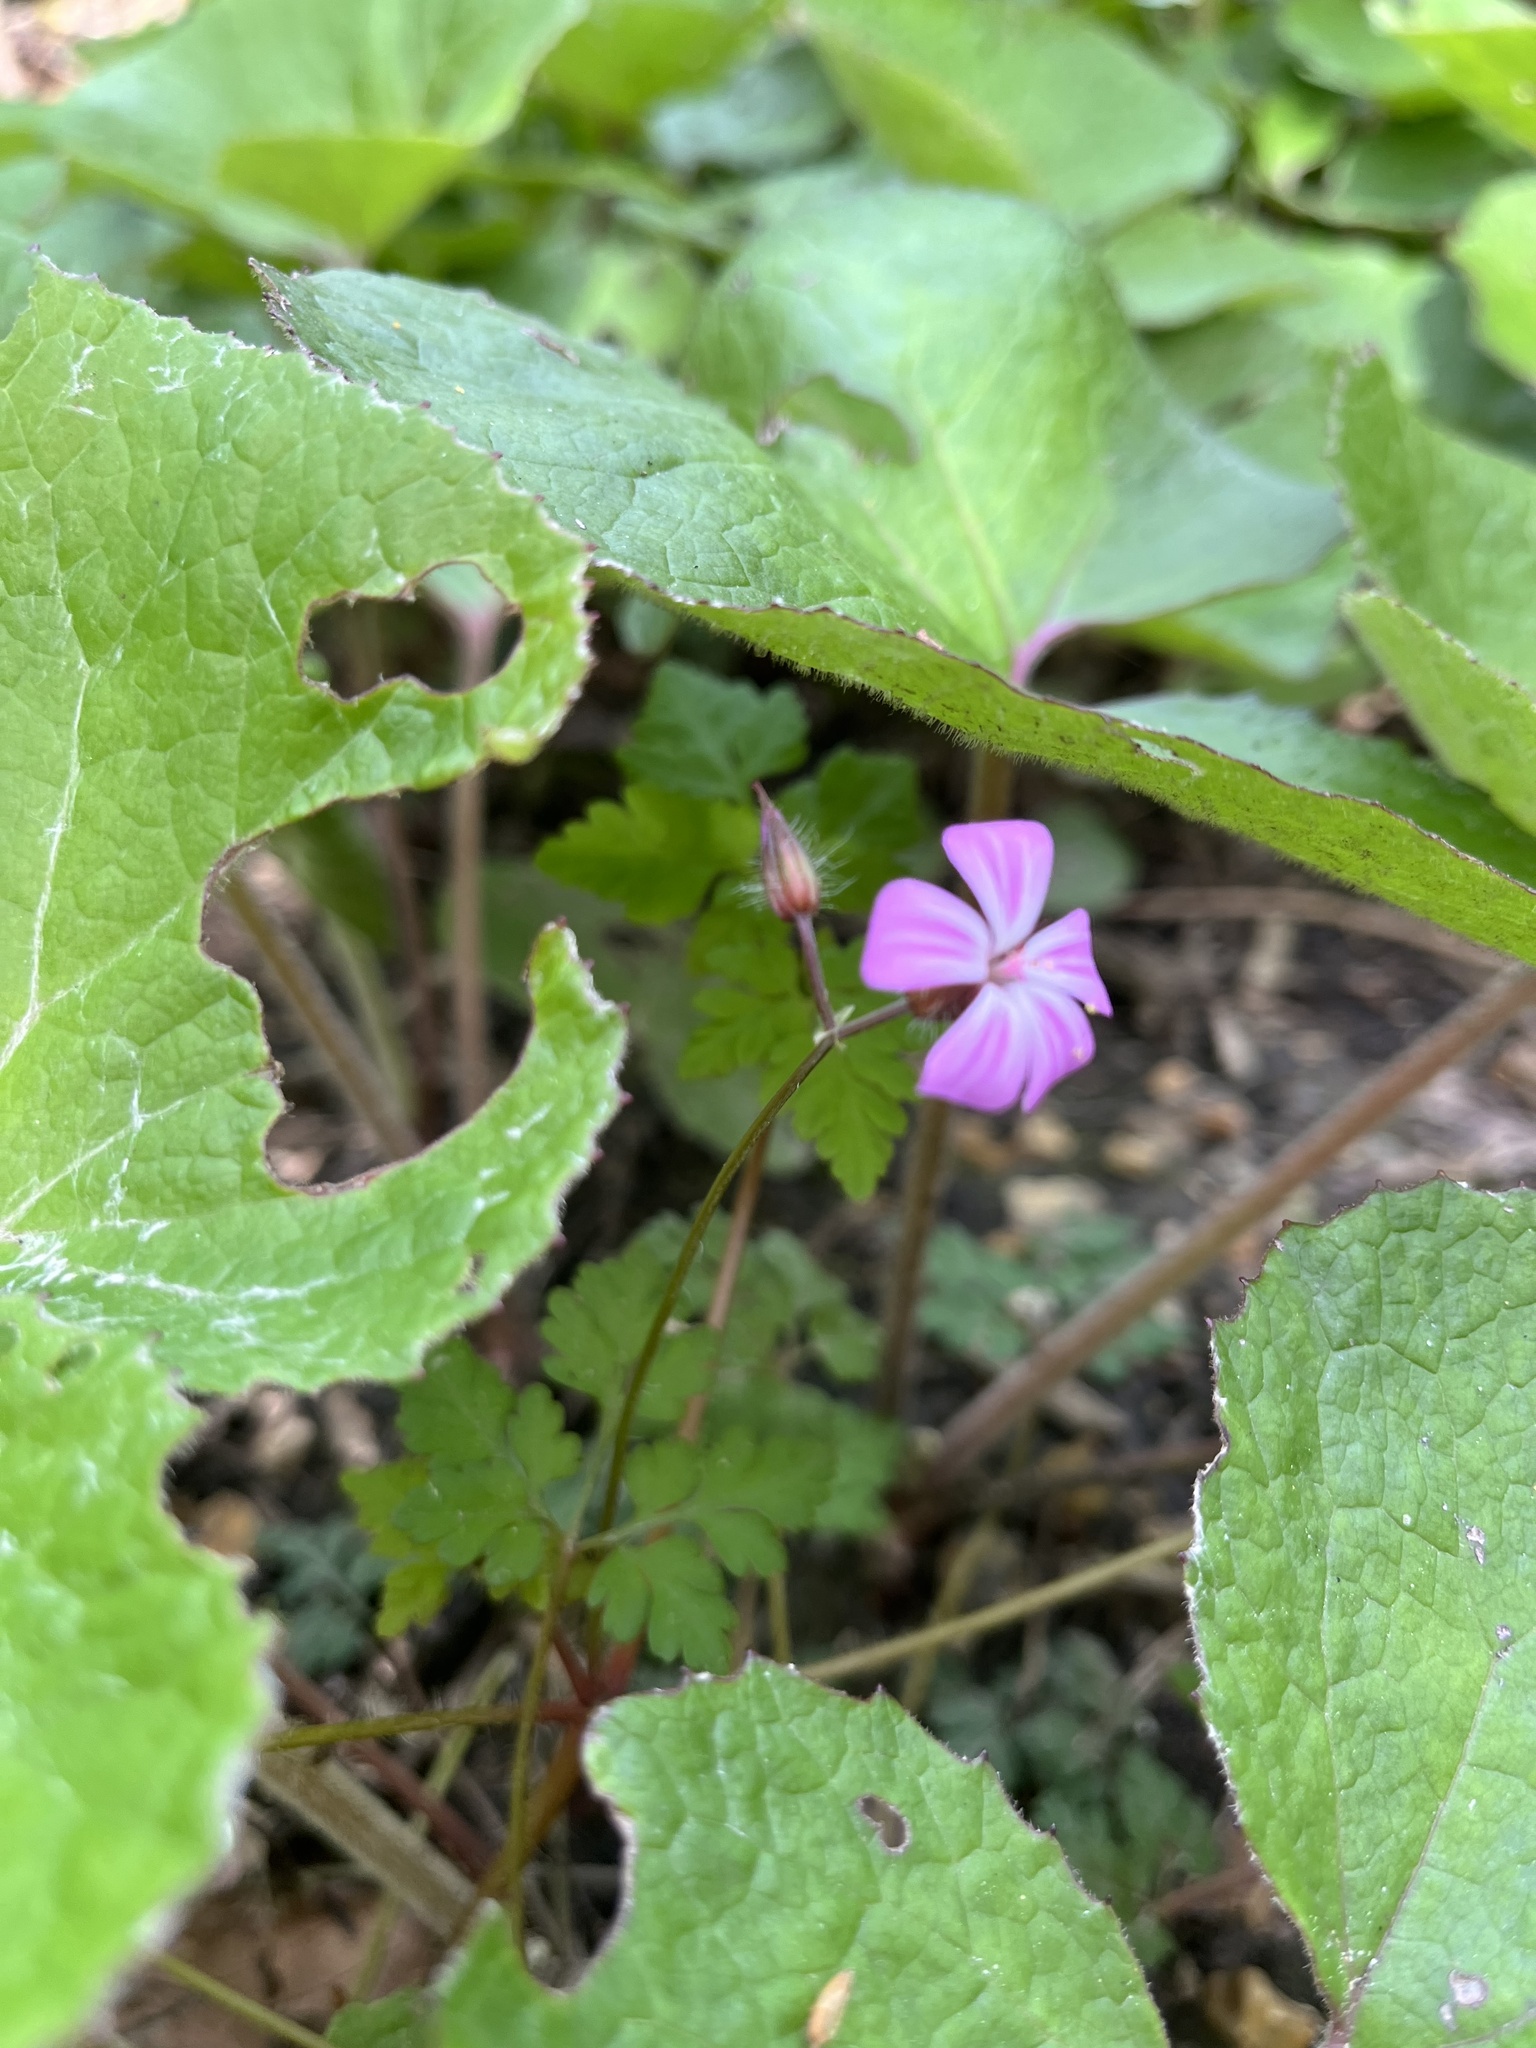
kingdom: Plantae
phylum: Tracheophyta
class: Magnoliopsida
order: Geraniales
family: Geraniaceae
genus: Geranium
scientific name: Geranium robertianum
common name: Herb-robert
